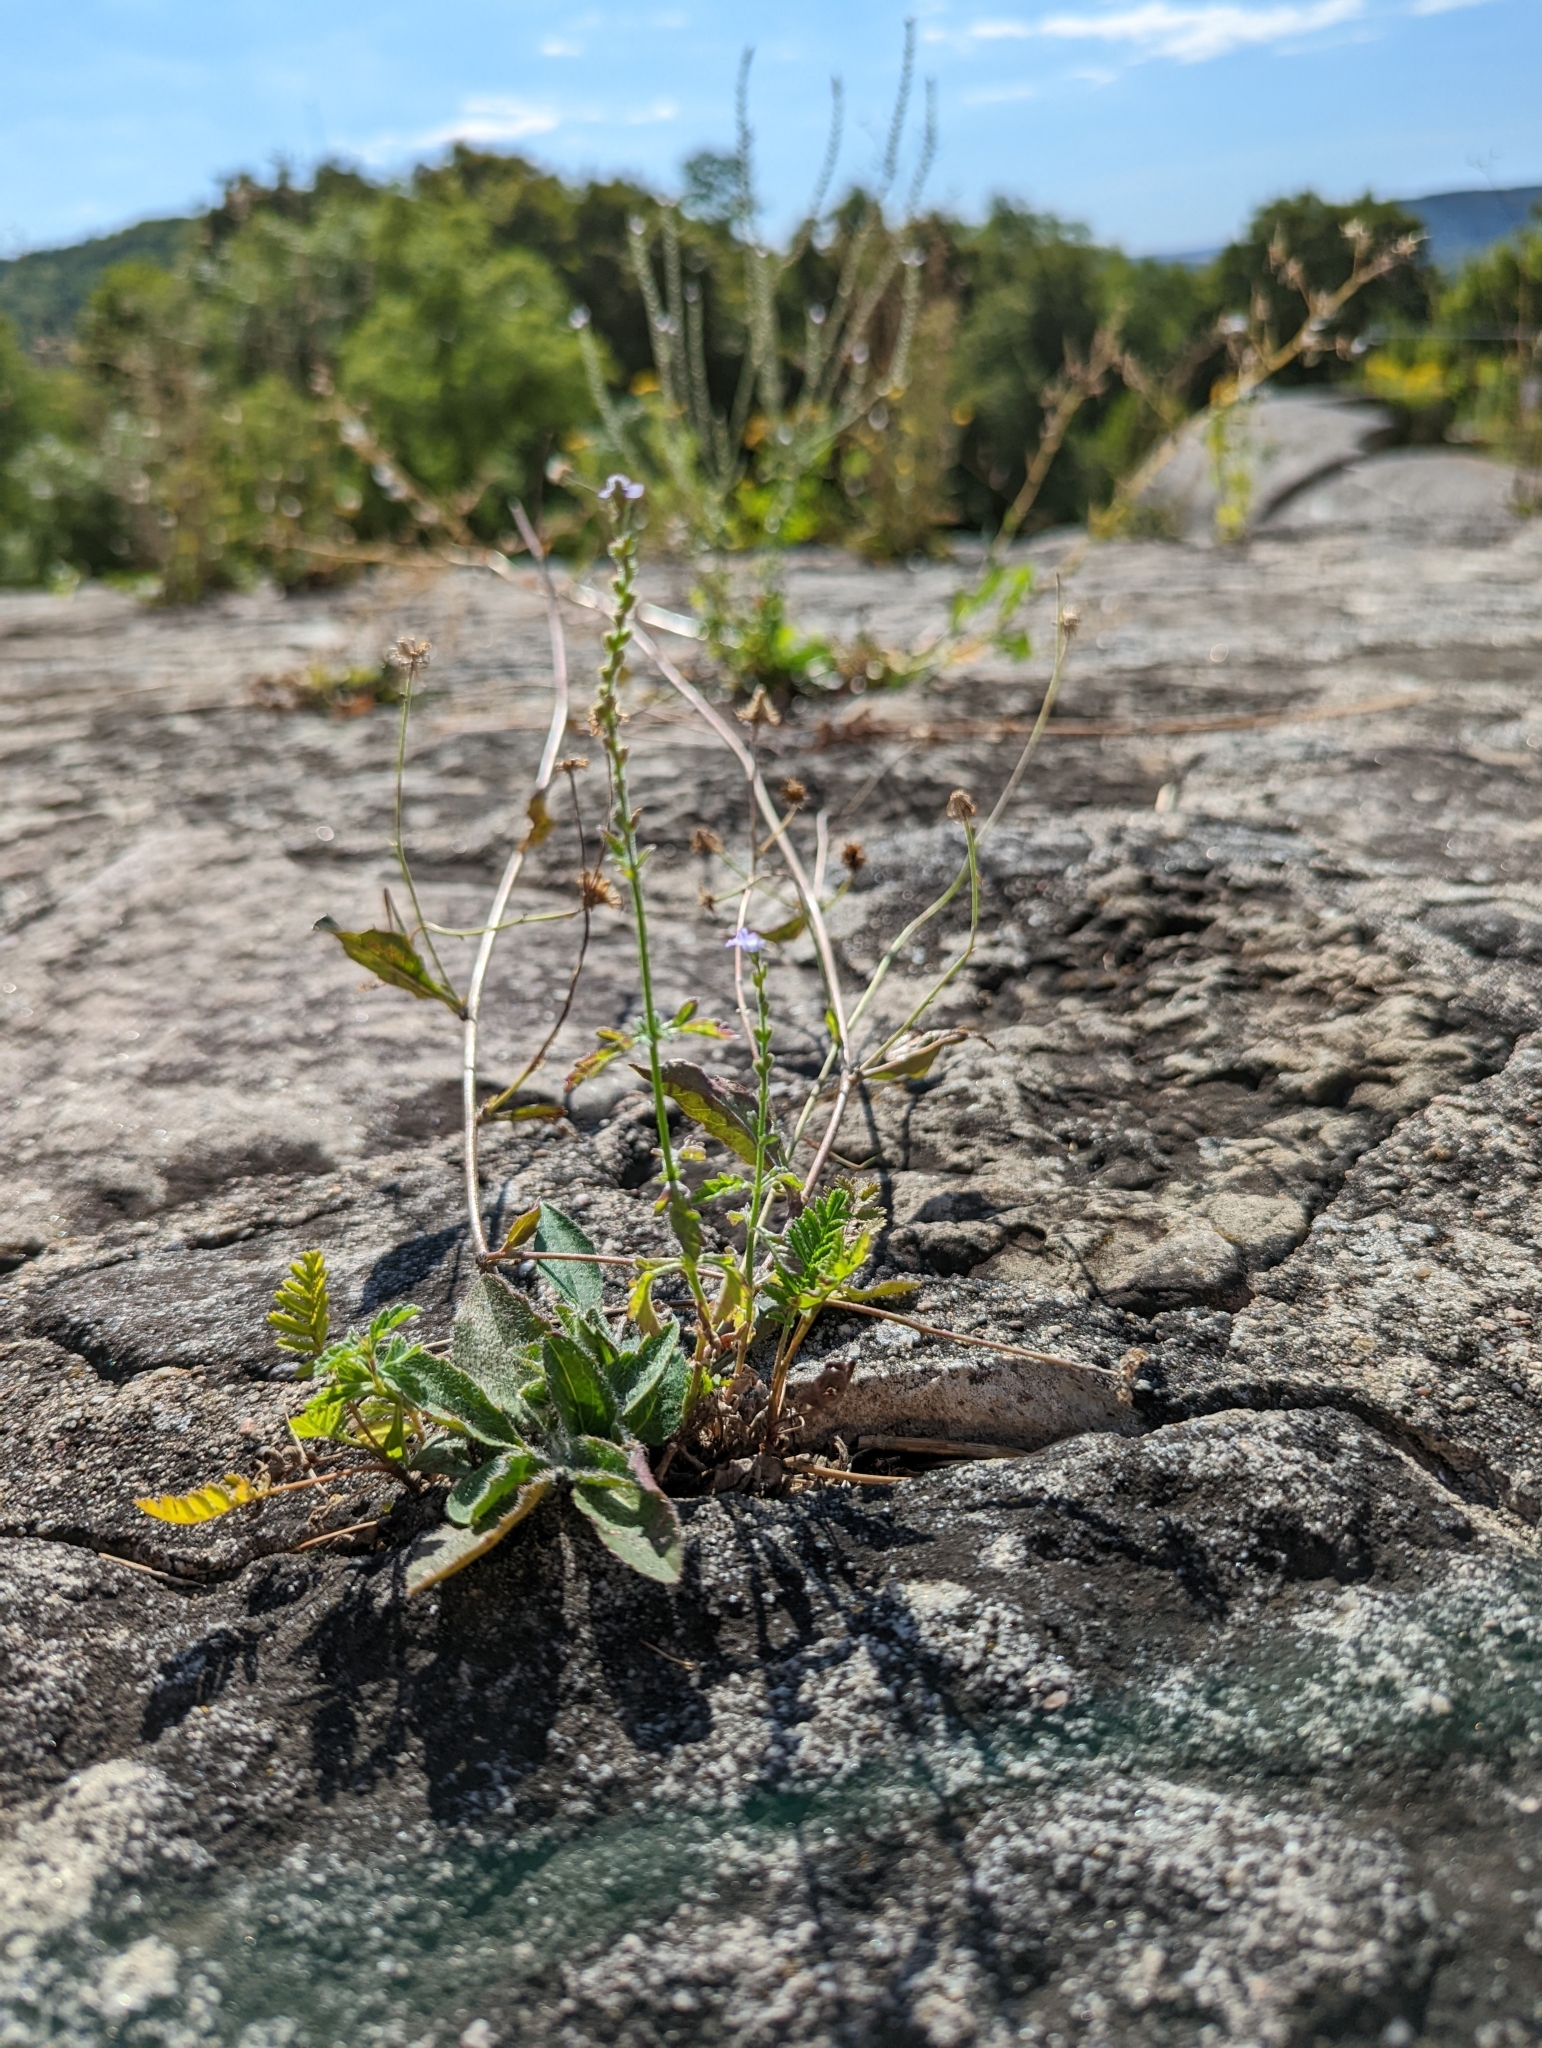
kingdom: Plantae
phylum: Tracheophyta
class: Magnoliopsida
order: Lamiales
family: Verbenaceae
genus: Verbena
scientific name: Verbena officinalis
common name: Vervain
